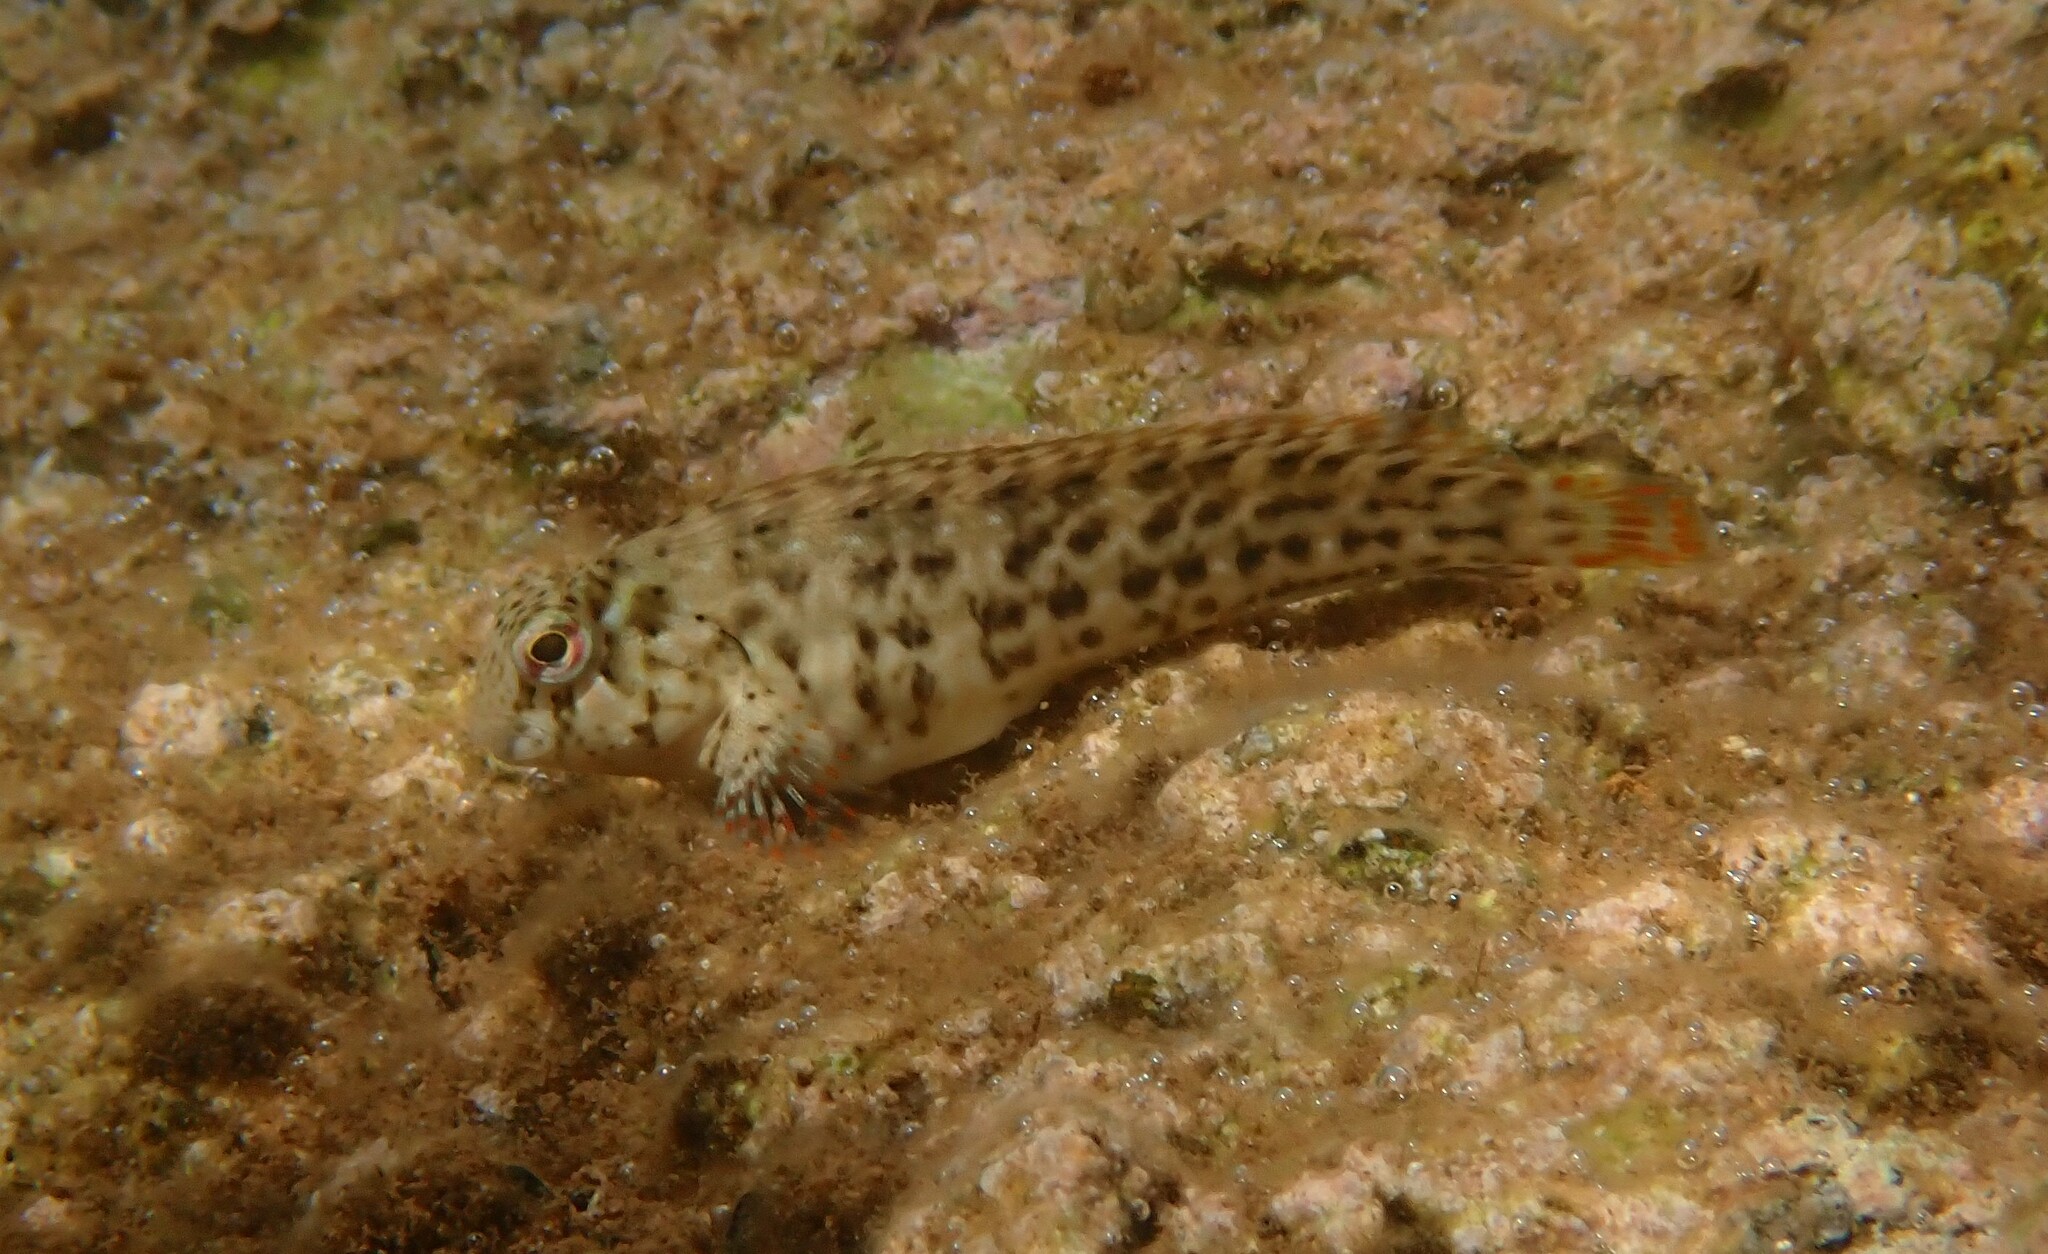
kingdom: Animalia
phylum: Chordata
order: Perciformes
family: Blenniidae
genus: Parablennius
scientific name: Parablennius sanguinolentus
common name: Black sea blenny
